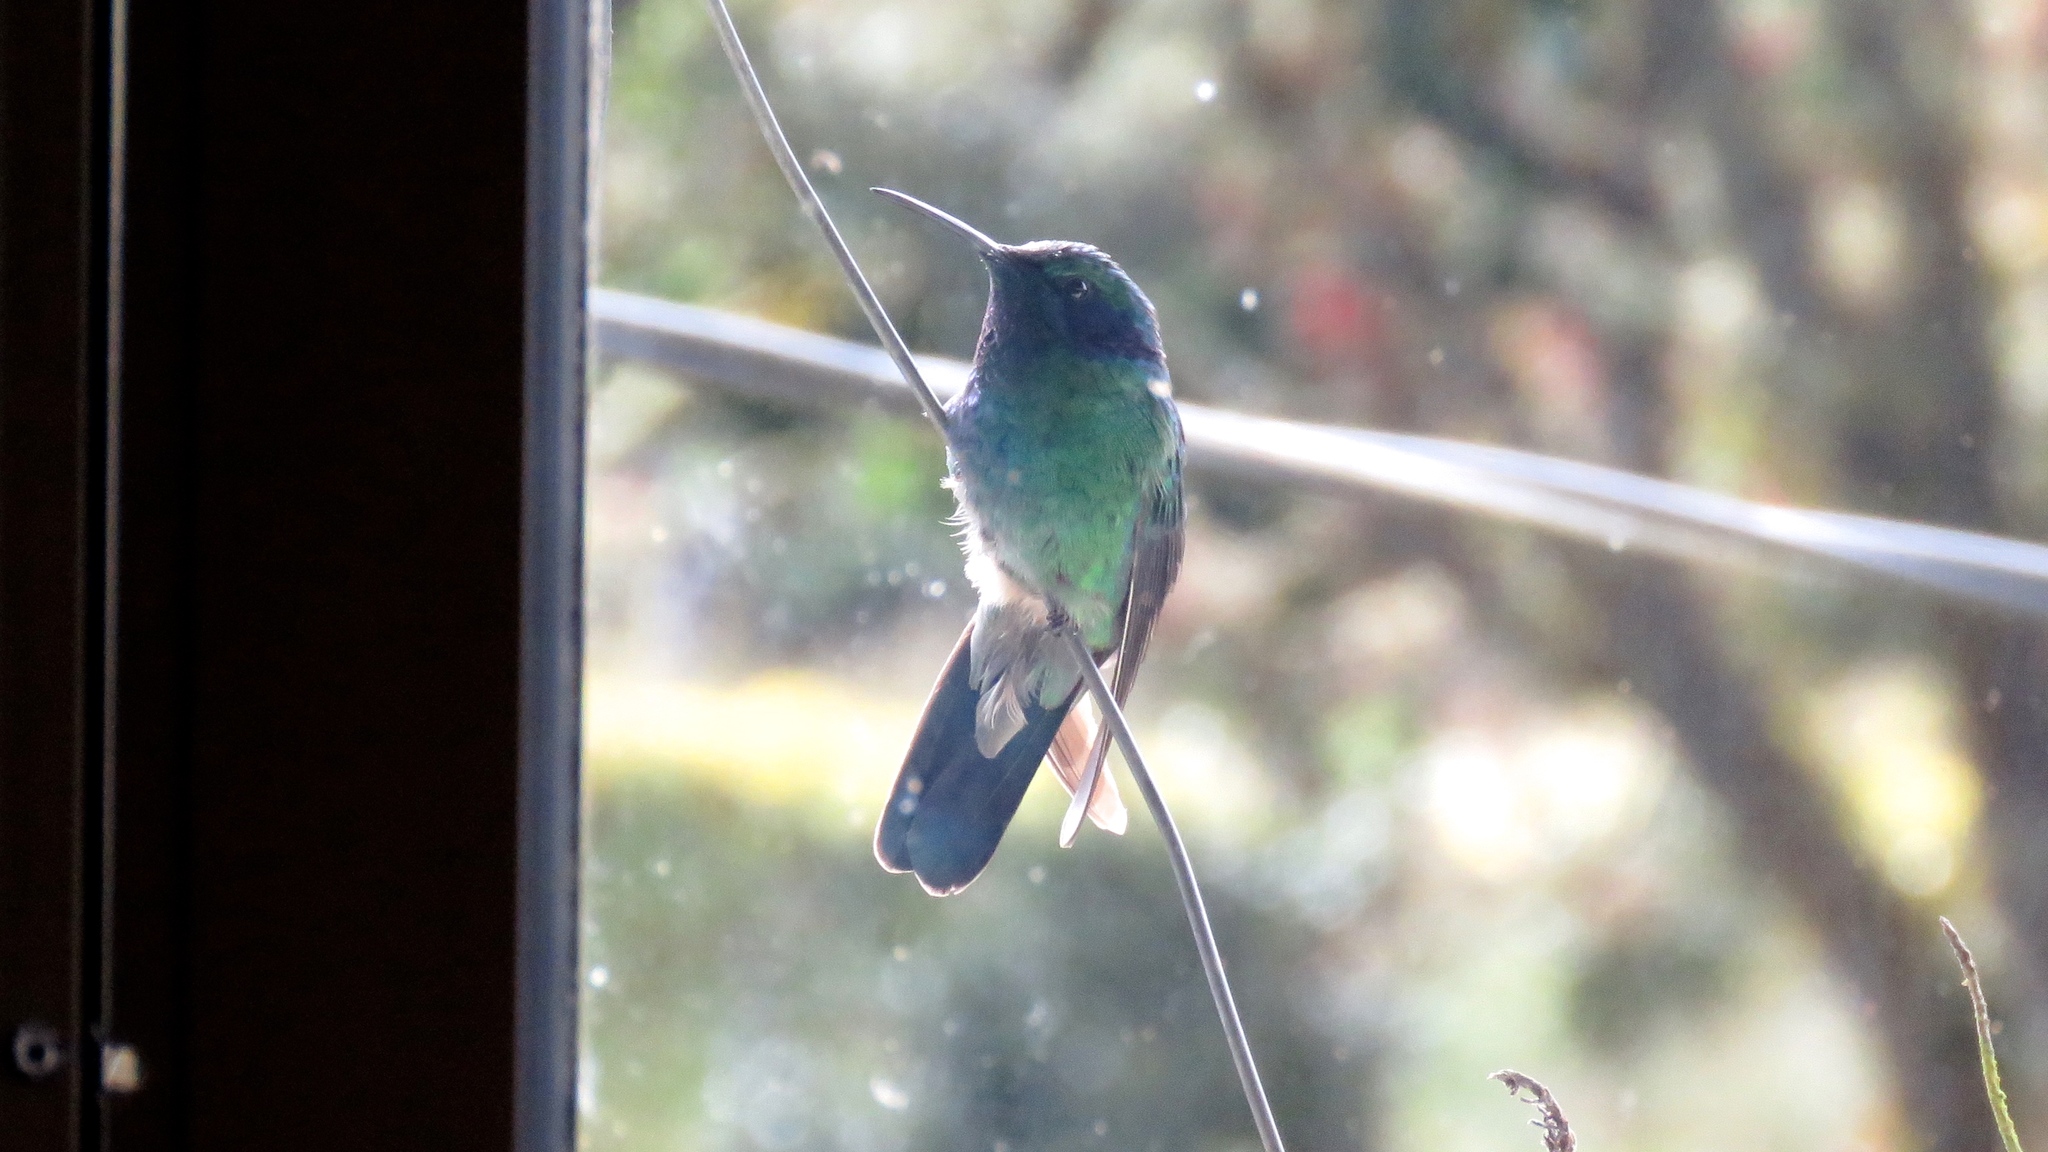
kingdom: Animalia
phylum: Chordata
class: Aves
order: Apodiformes
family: Trochilidae
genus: Colibri
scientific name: Colibri cyanotus
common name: Lesser violetear
